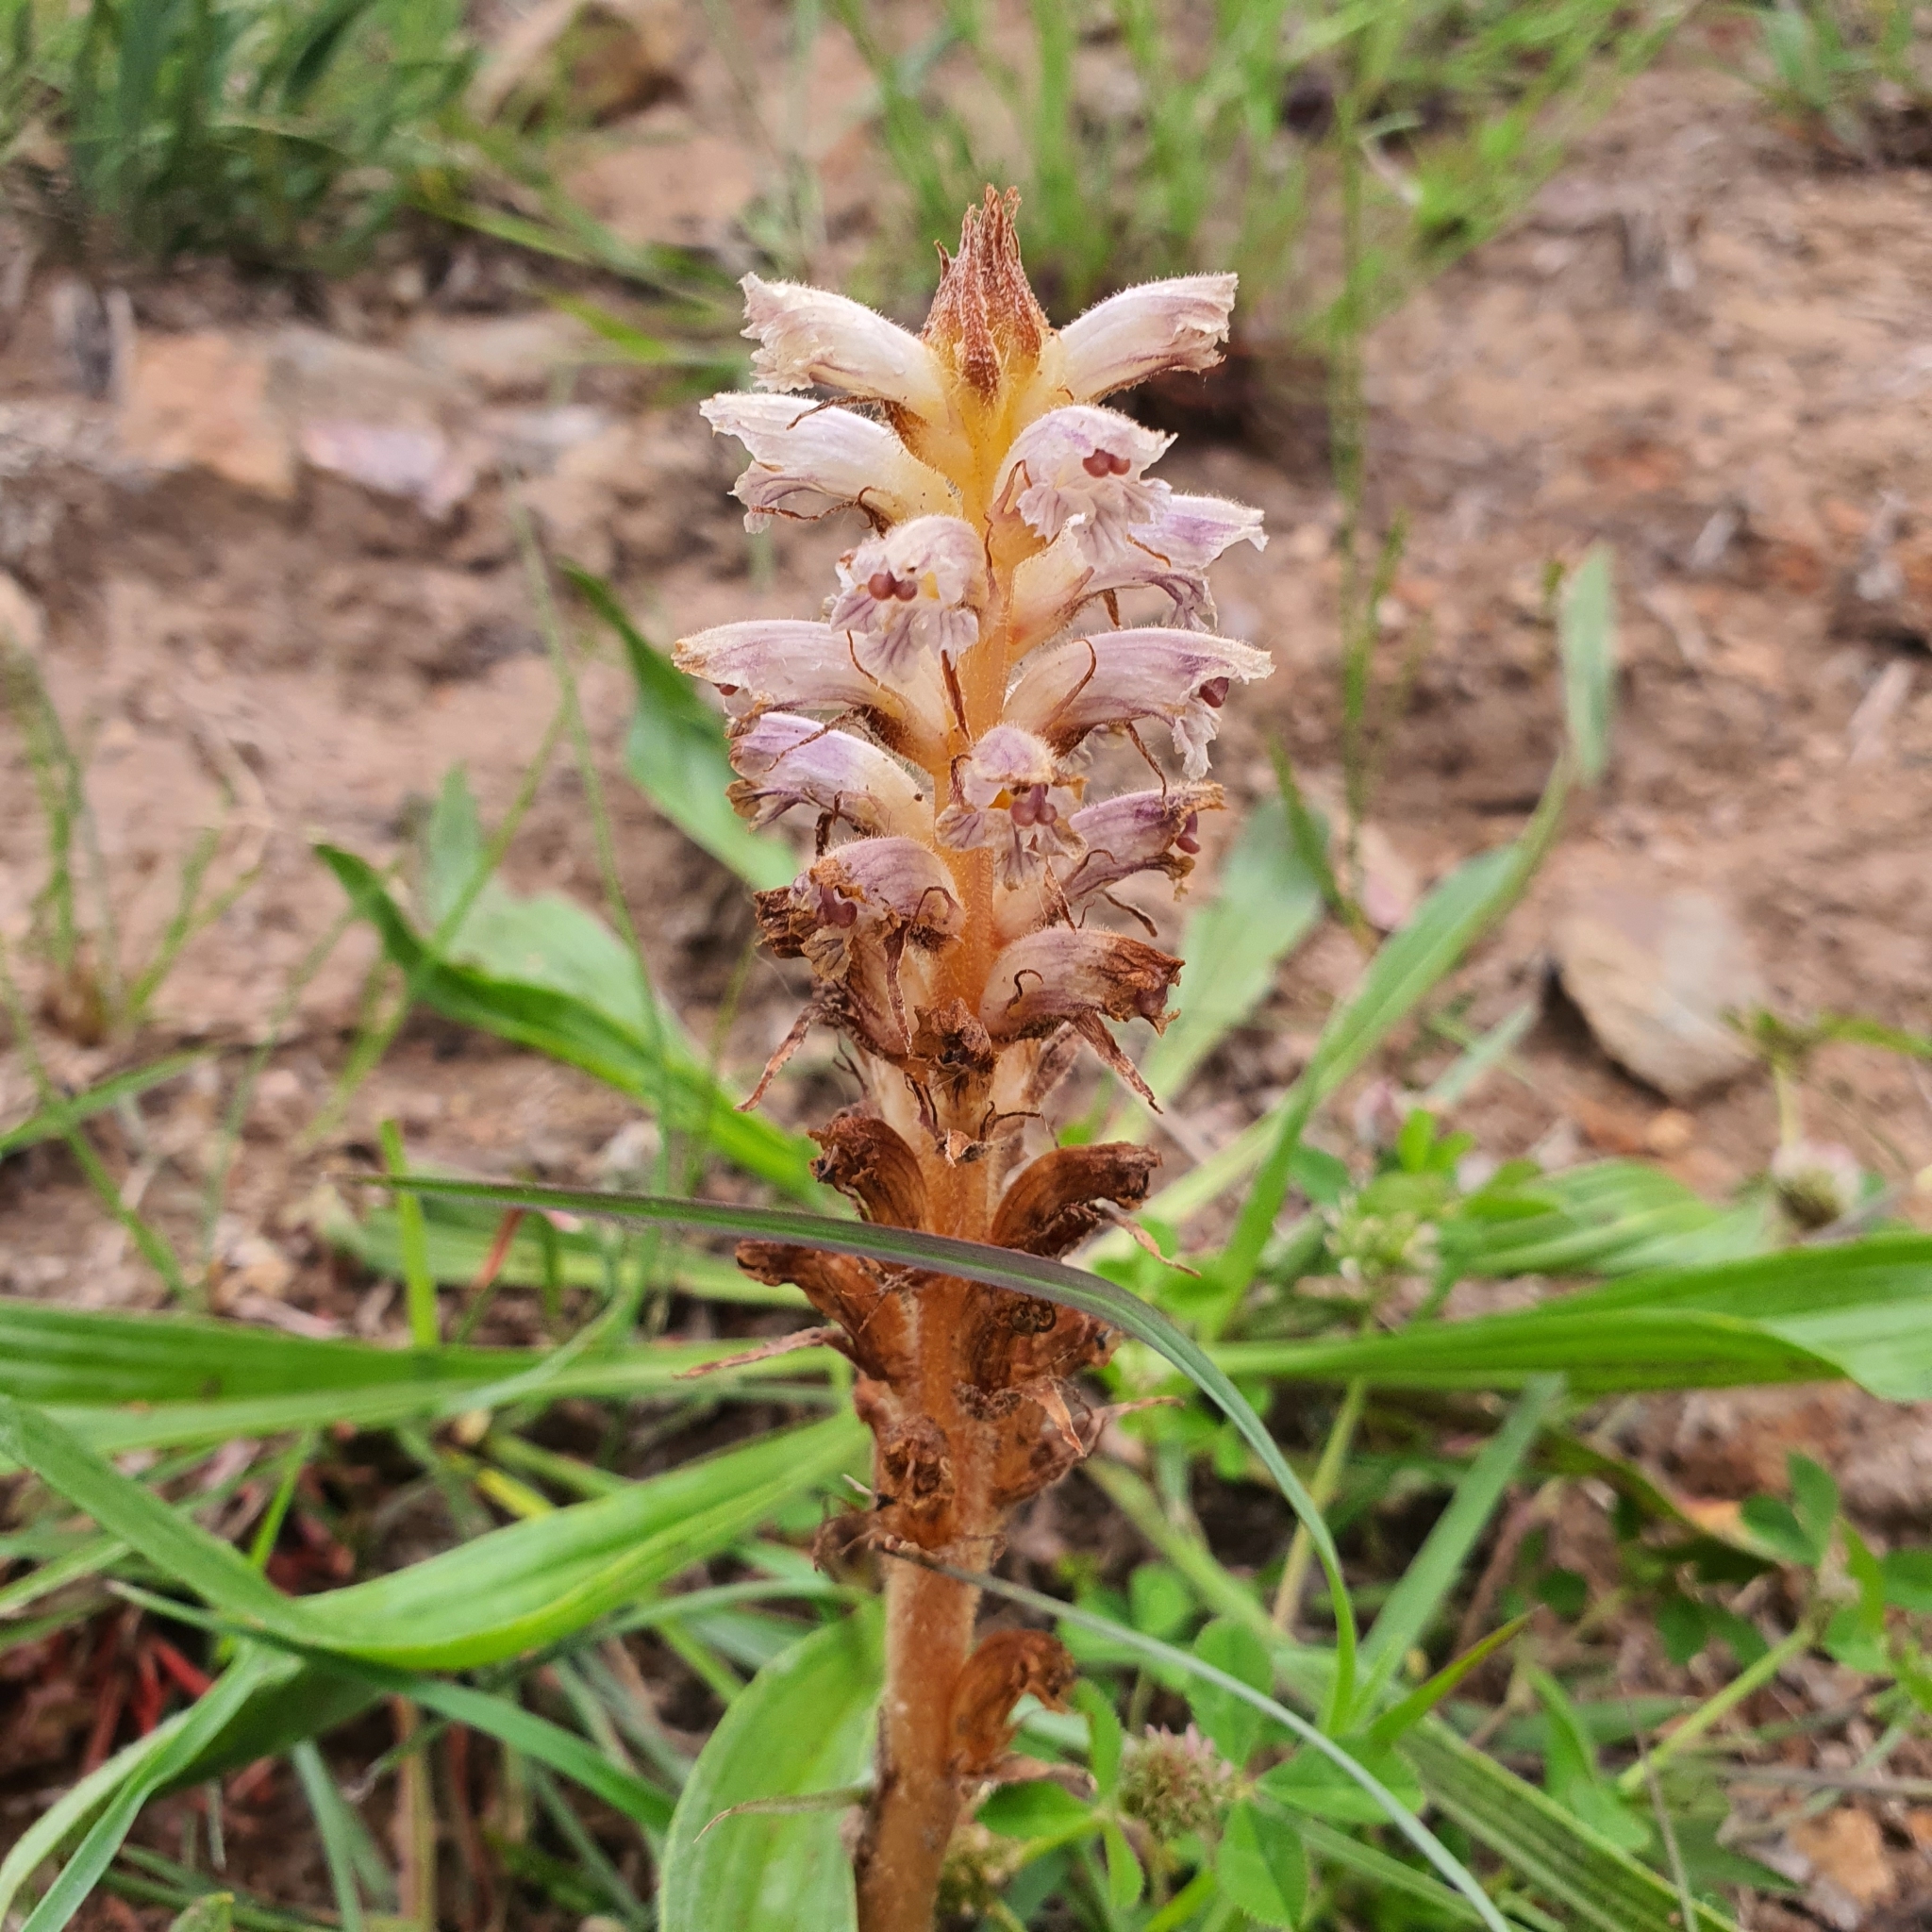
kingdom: Plantae
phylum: Tracheophyta
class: Magnoliopsida
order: Lamiales
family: Orobanchaceae
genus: Orobanche
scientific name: Orobanche minor
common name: Common broomrape
